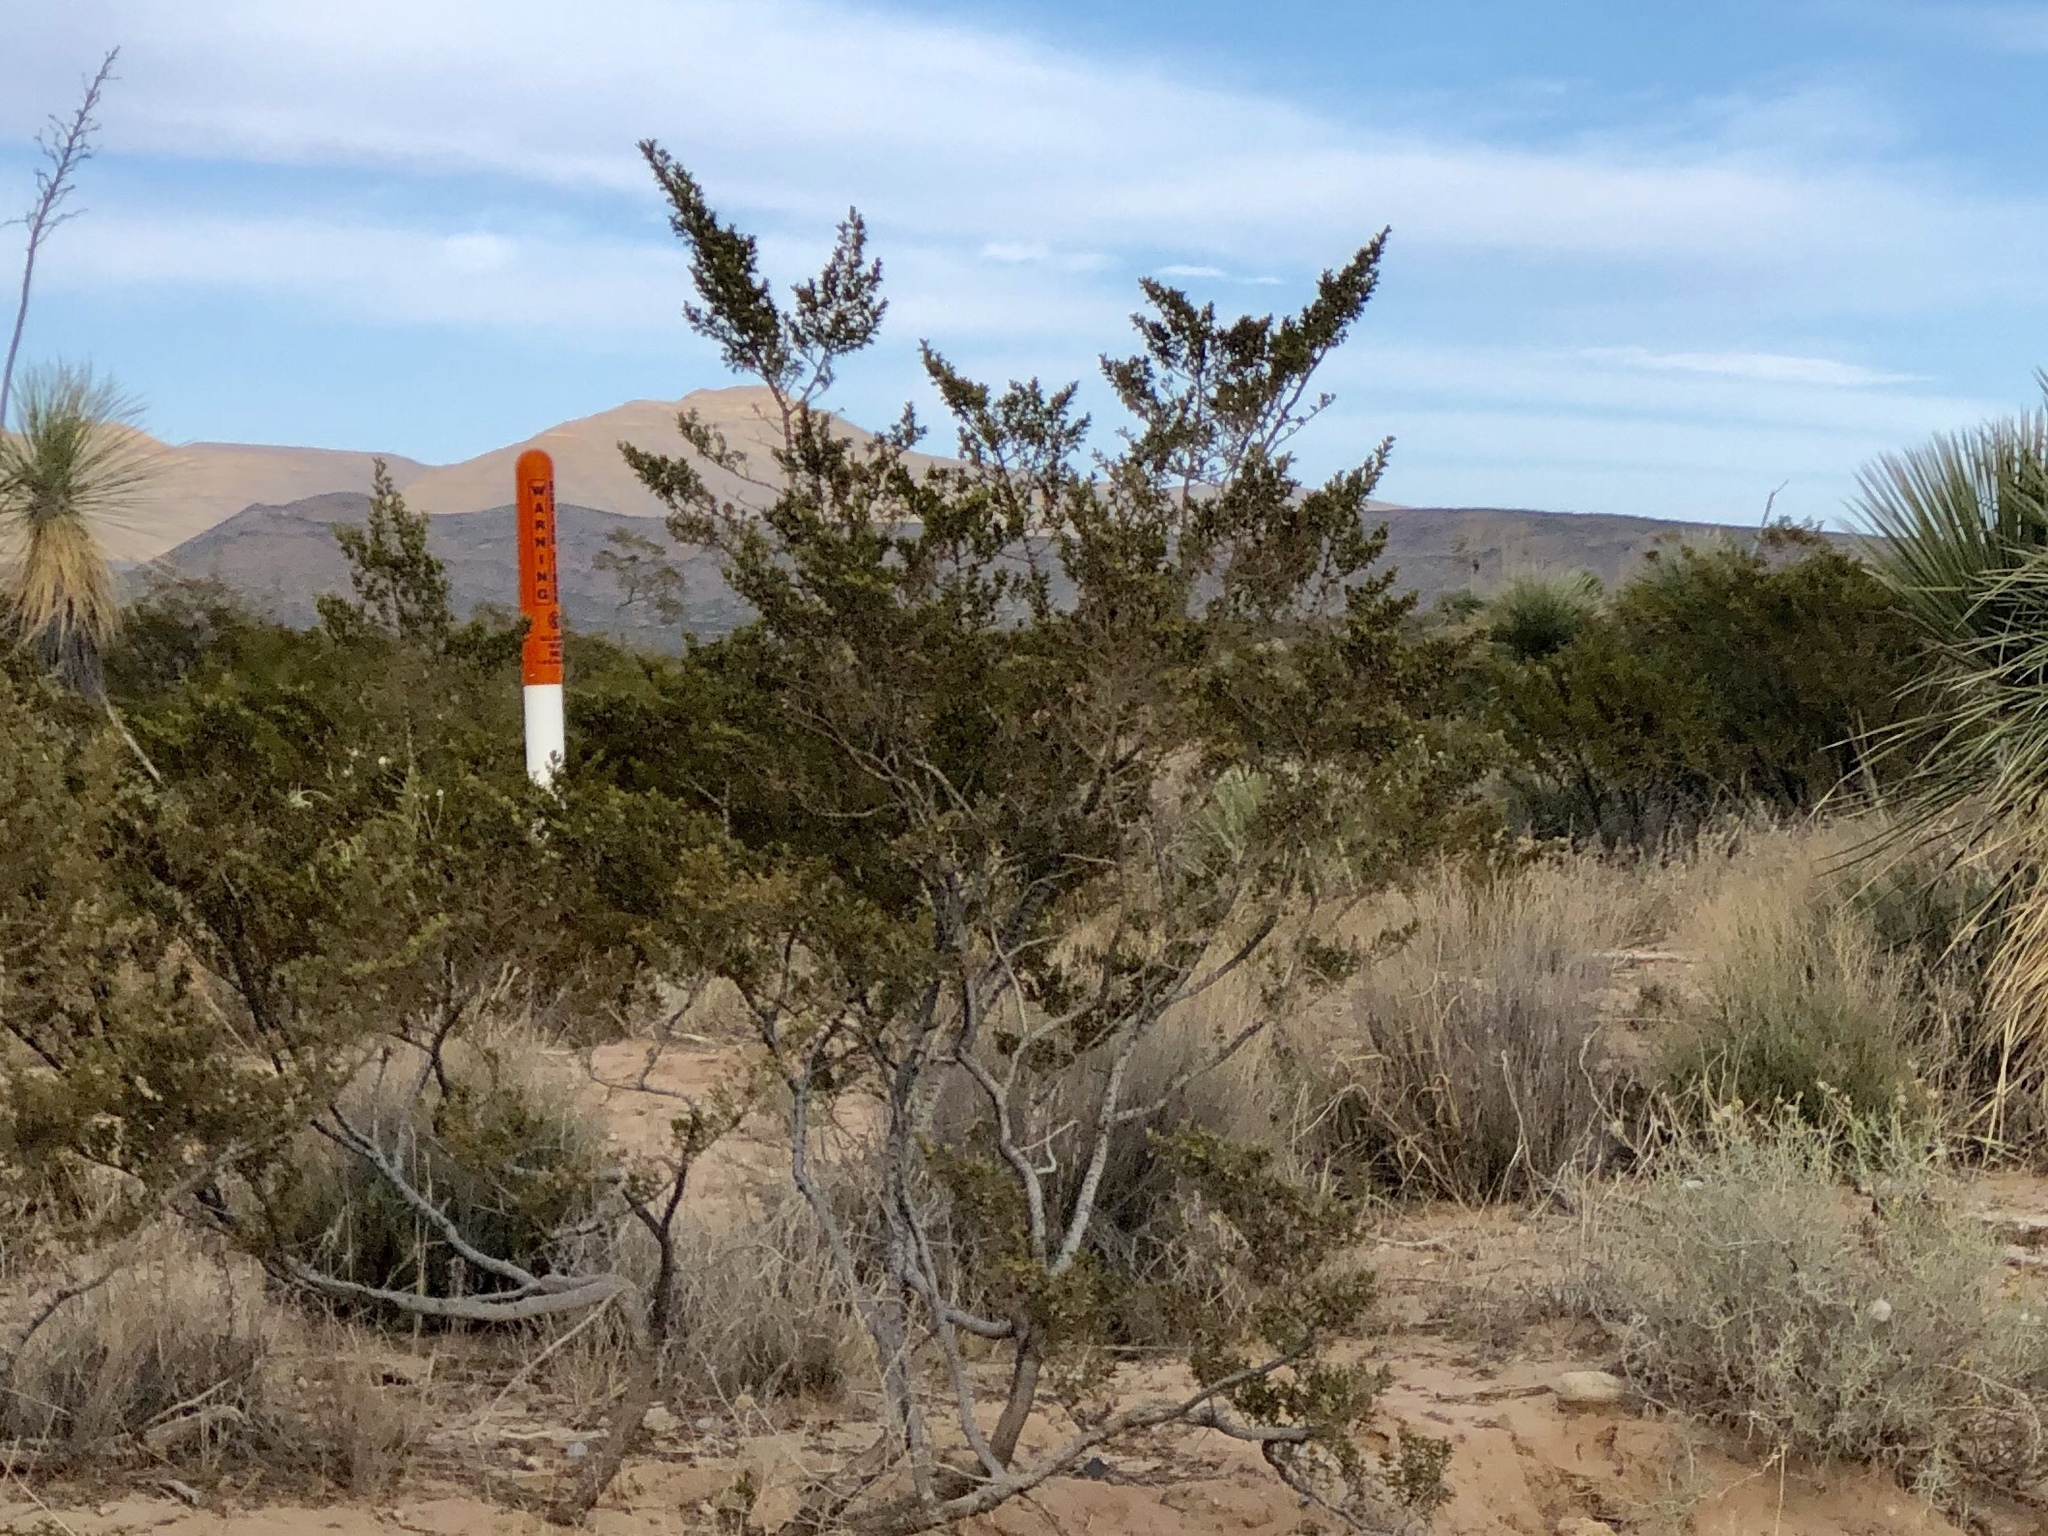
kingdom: Plantae
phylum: Tracheophyta
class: Magnoliopsida
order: Zygophyllales
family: Zygophyllaceae
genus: Larrea
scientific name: Larrea tridentata
